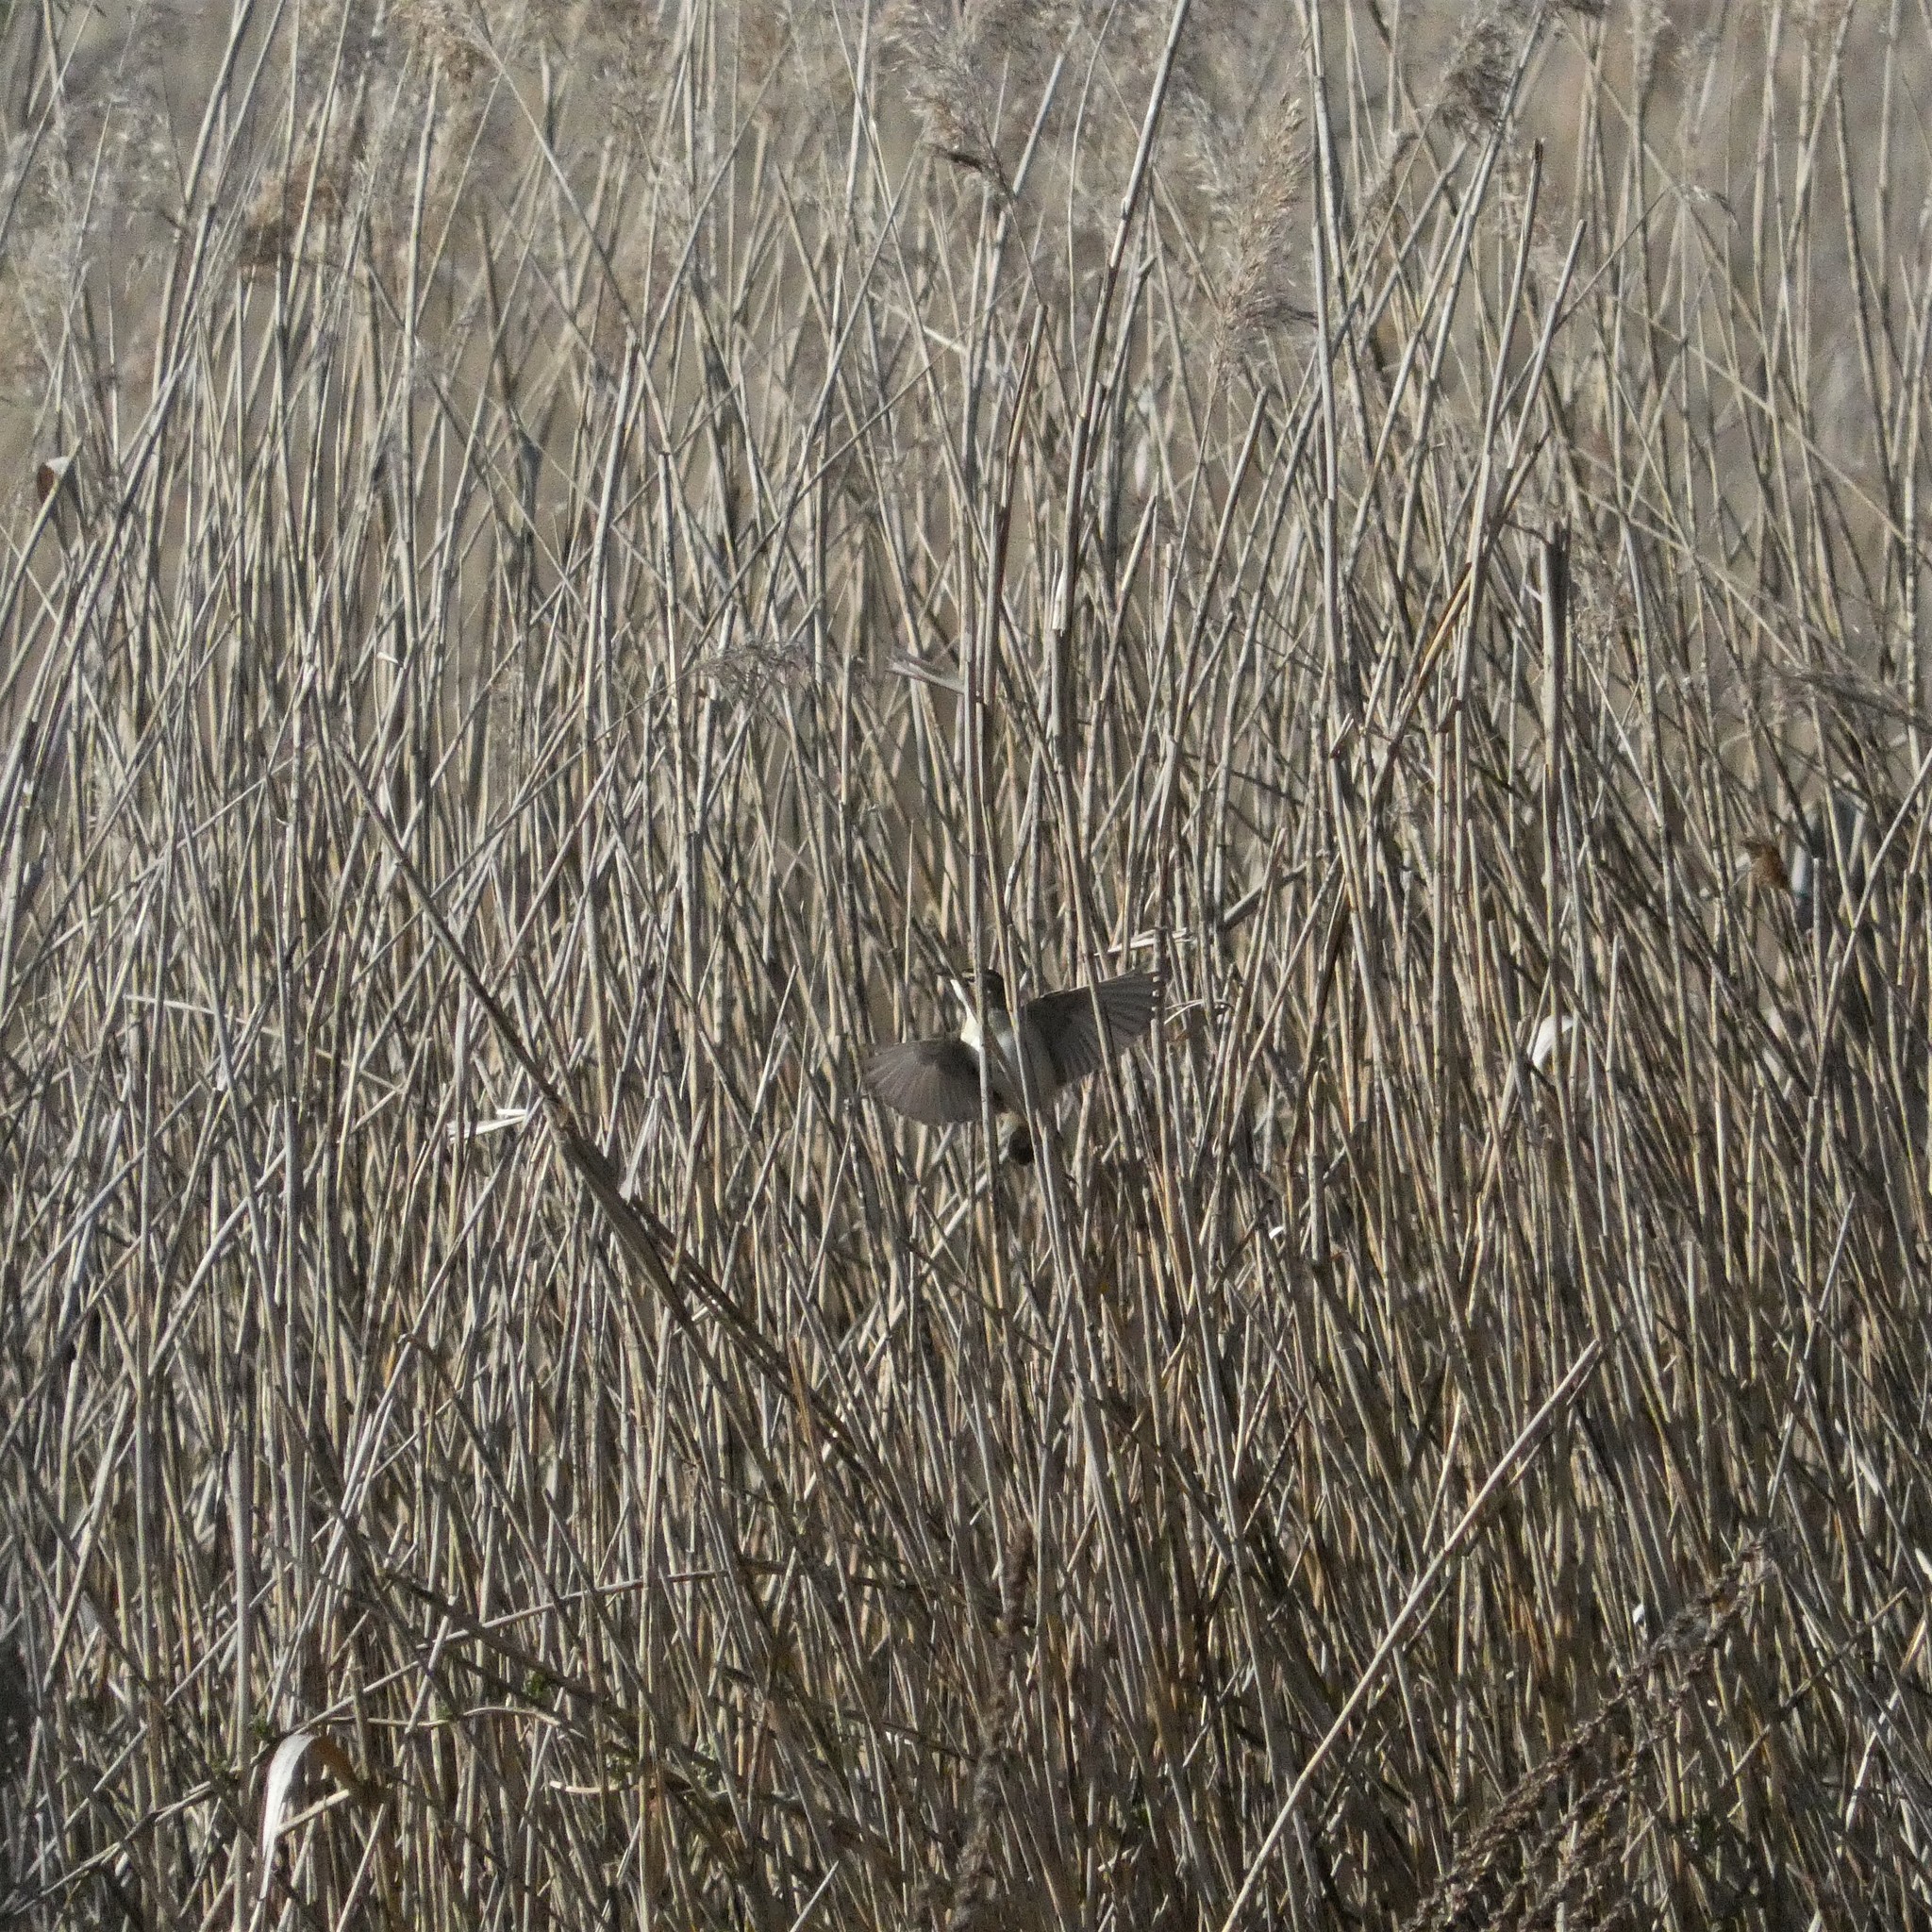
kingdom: Animalia
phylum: Chordata
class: Aves
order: Passeriformes
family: Acrocephalidae
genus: Acrocephalus
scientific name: Acrocephalus schoenobaenus
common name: Sedge warbler
